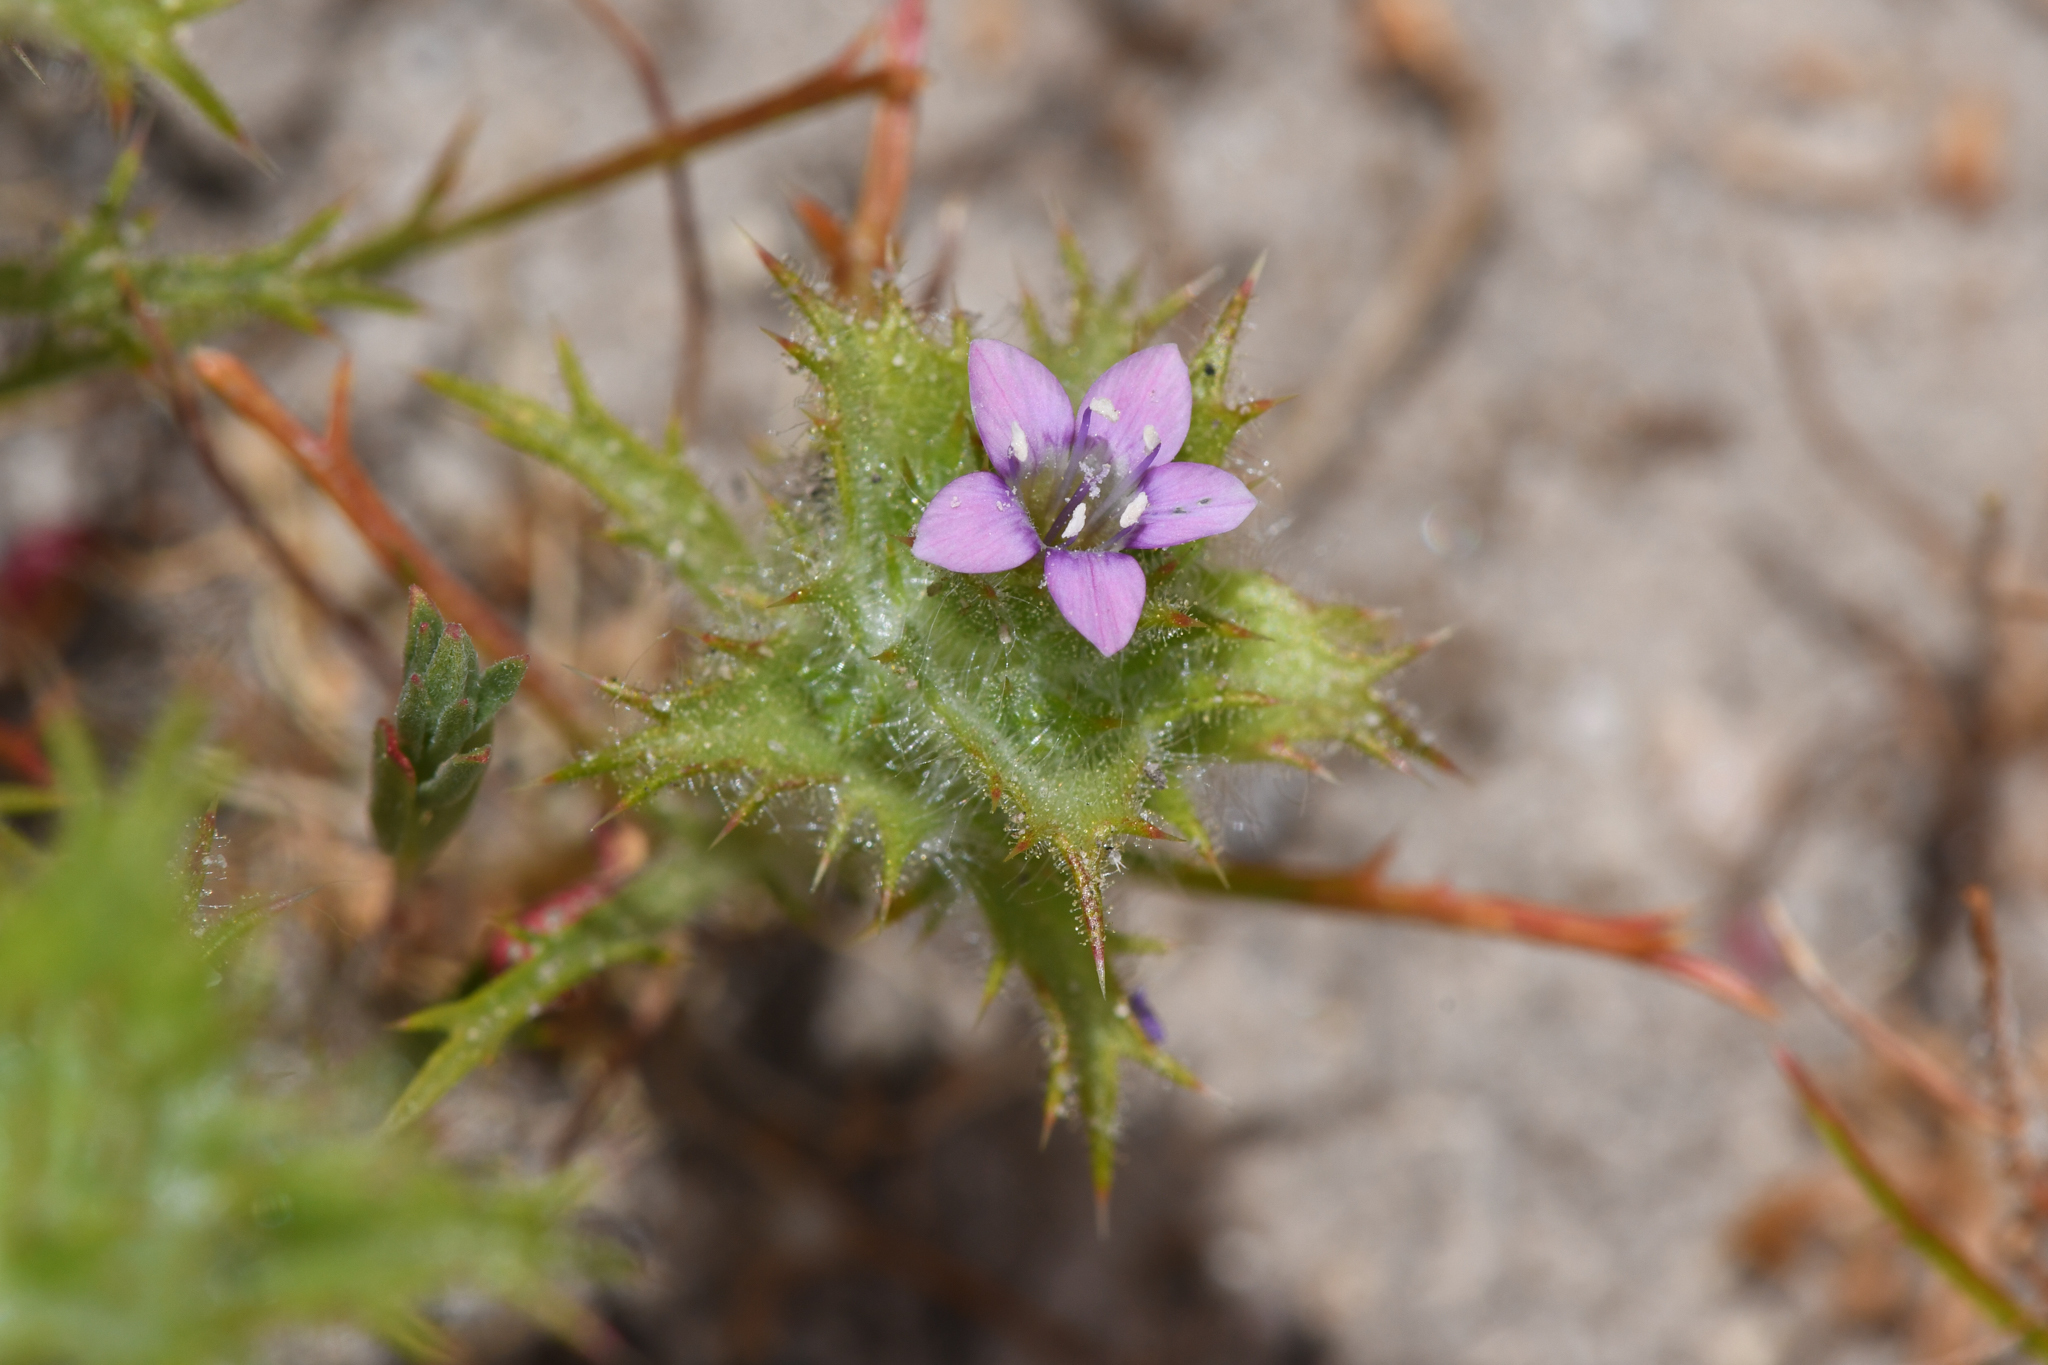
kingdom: Plantae
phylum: Tracheophyta
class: Magnoliopsida
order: Ericales
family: Polemoniaceae
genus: Navarretia
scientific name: Navarretia atractyloides
